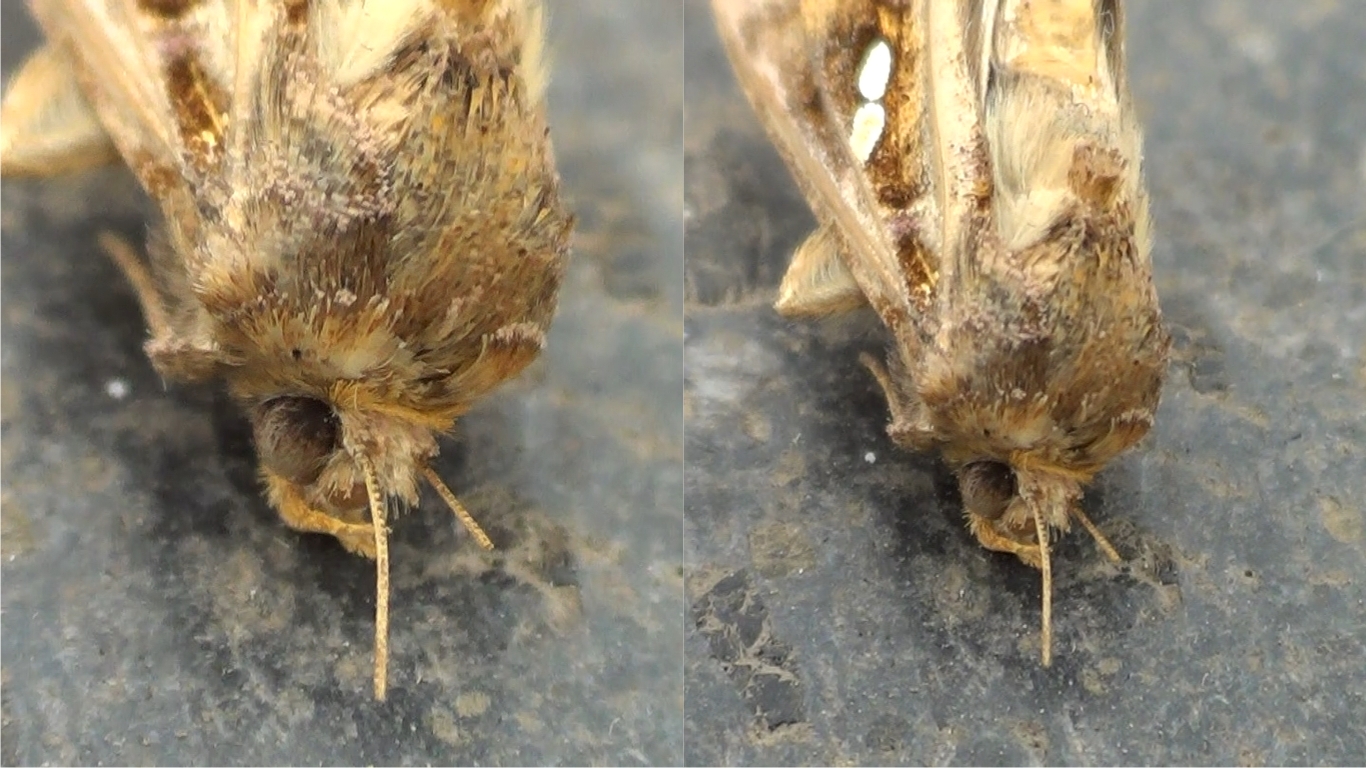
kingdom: Animalia
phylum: Arthropoda
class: Insecta
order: Lepidoptera
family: Noctuidae
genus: Chrysodeixis
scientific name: Chrysodeixis chalcites
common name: Golden twin-spot
